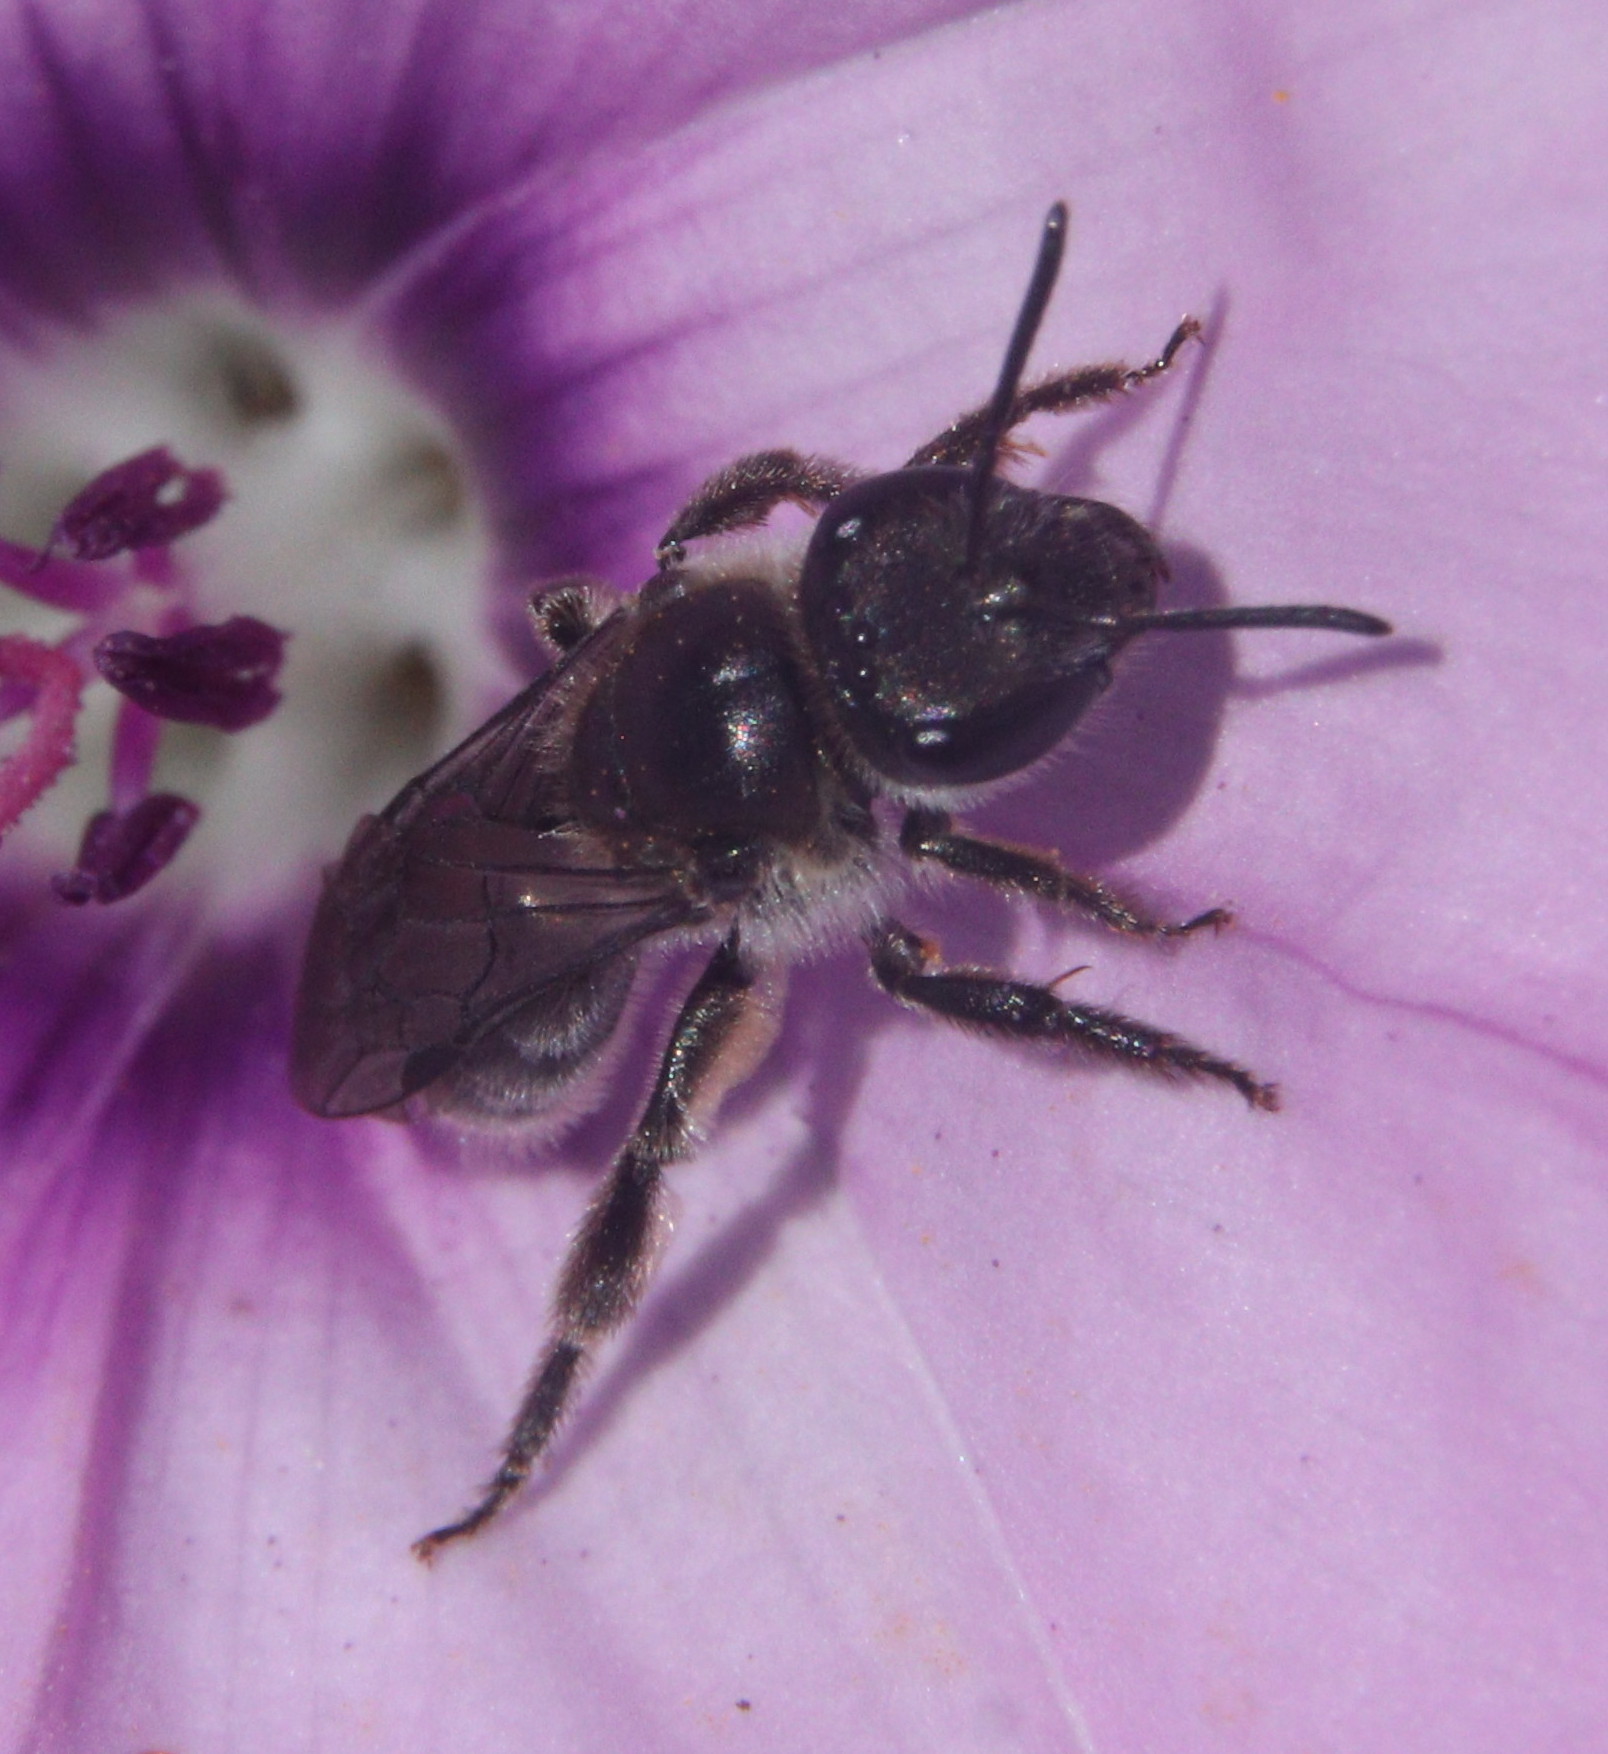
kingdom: Animalia
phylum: Arthropoda
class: Insecta
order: Hymenoptera
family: Halictidae
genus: Lasioglossum
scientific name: Lasioglossum viride
